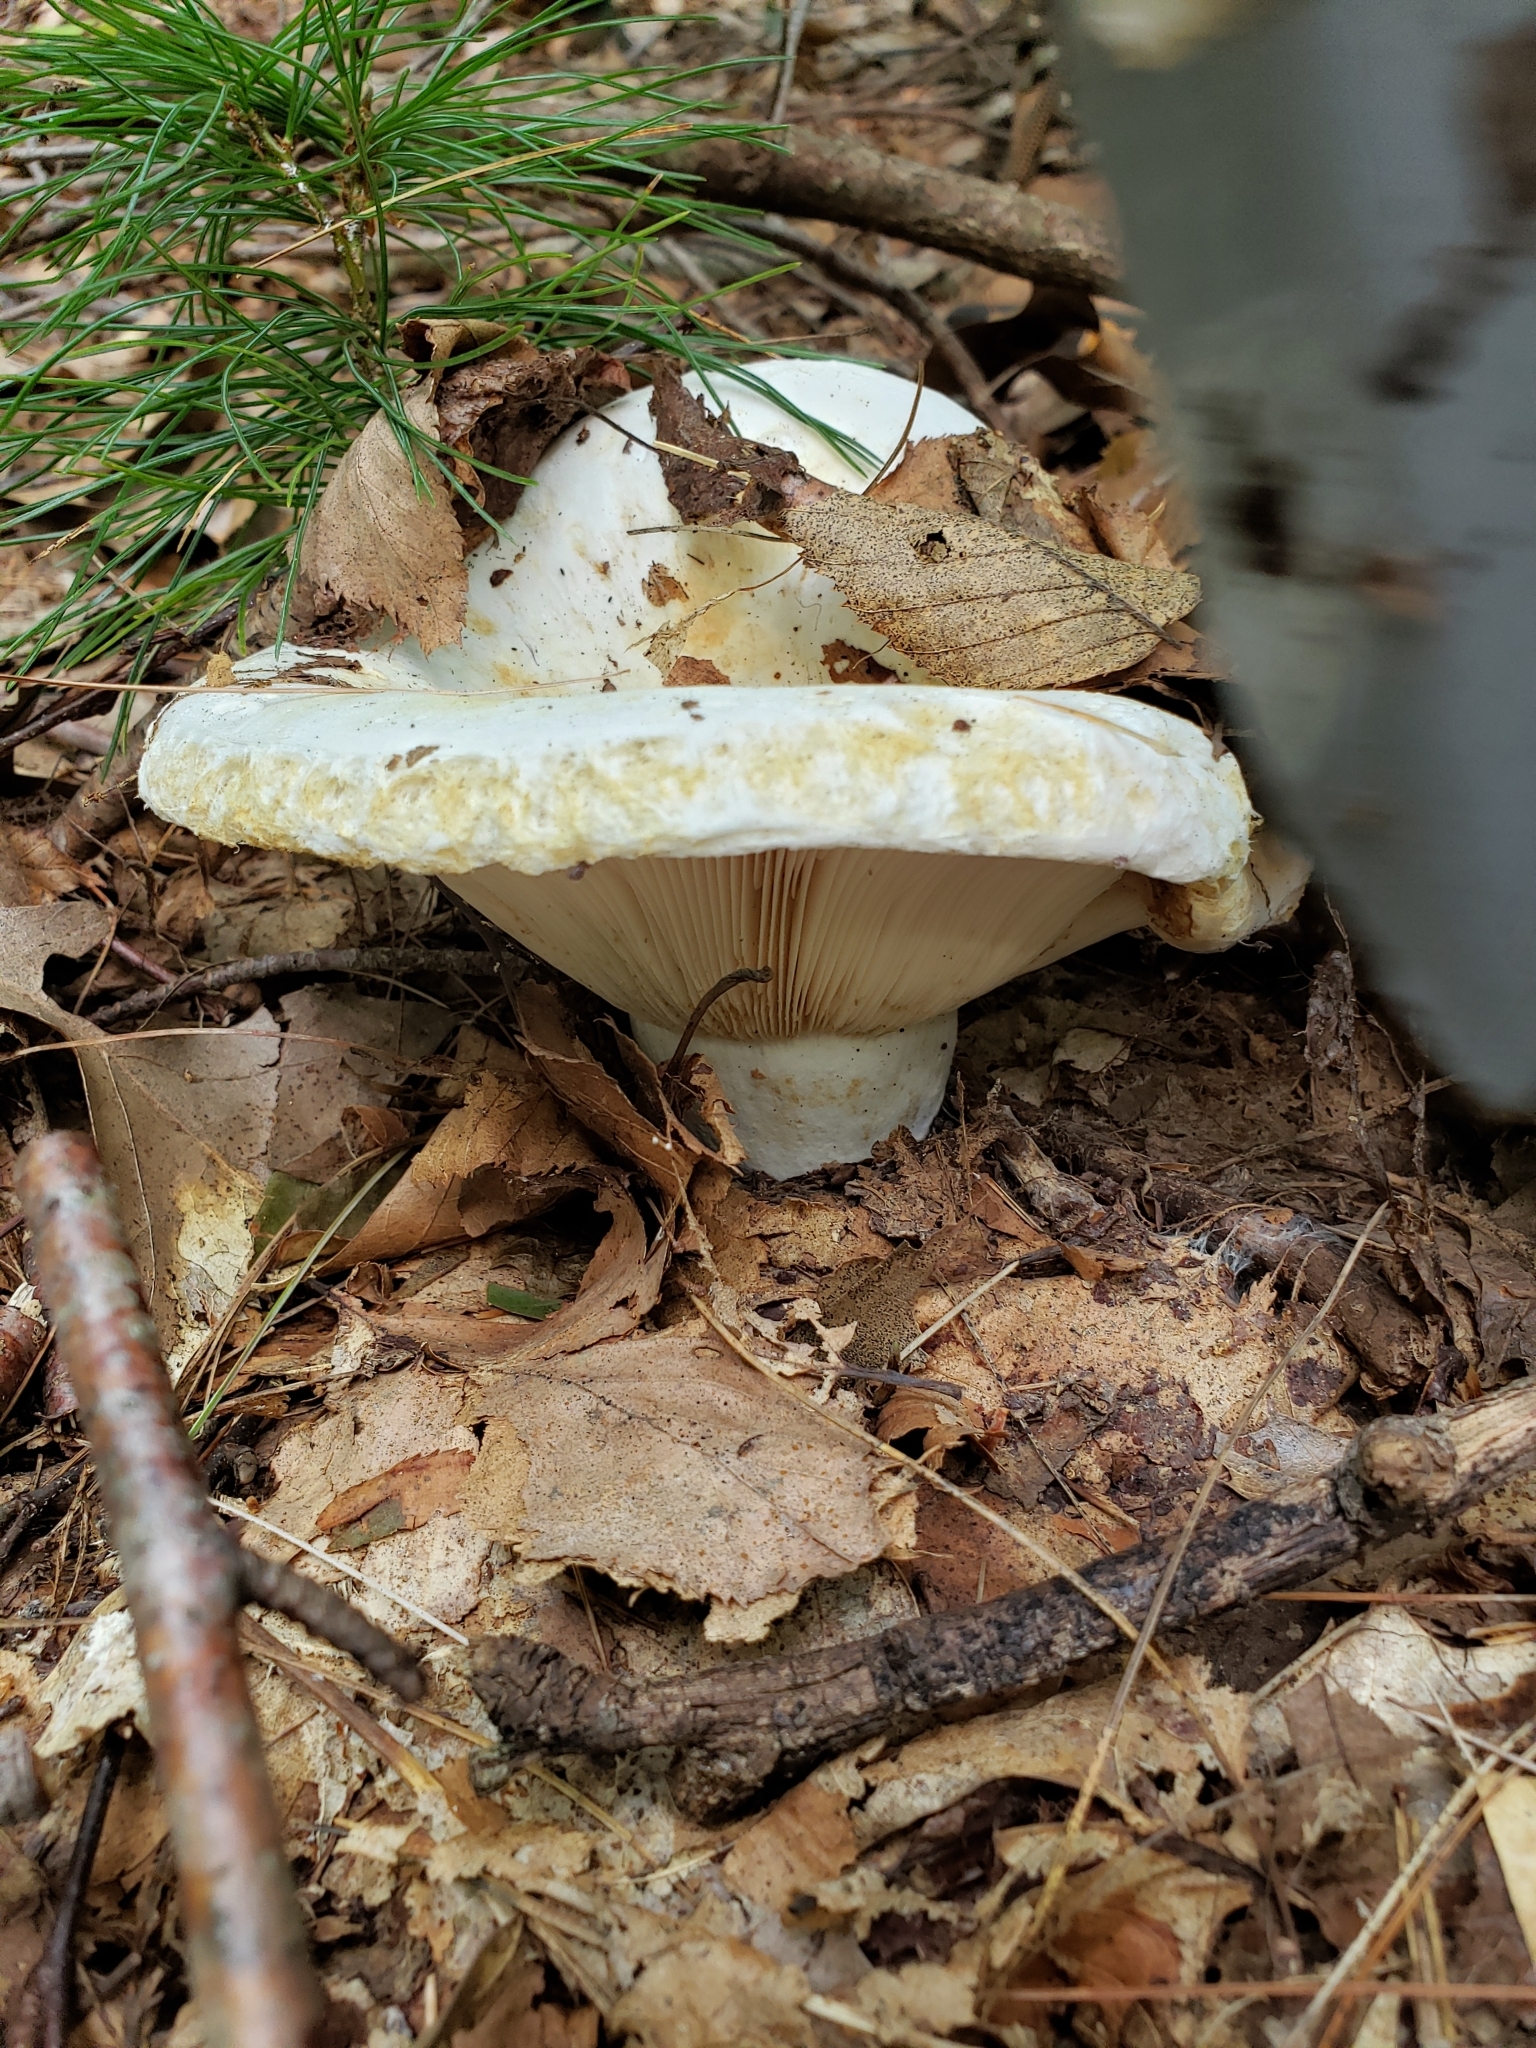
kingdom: Fungi
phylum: Basidiomycota
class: Agaricomycetes
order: Russulales
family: Russulaceae
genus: Lactifluus
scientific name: Lactifluus
